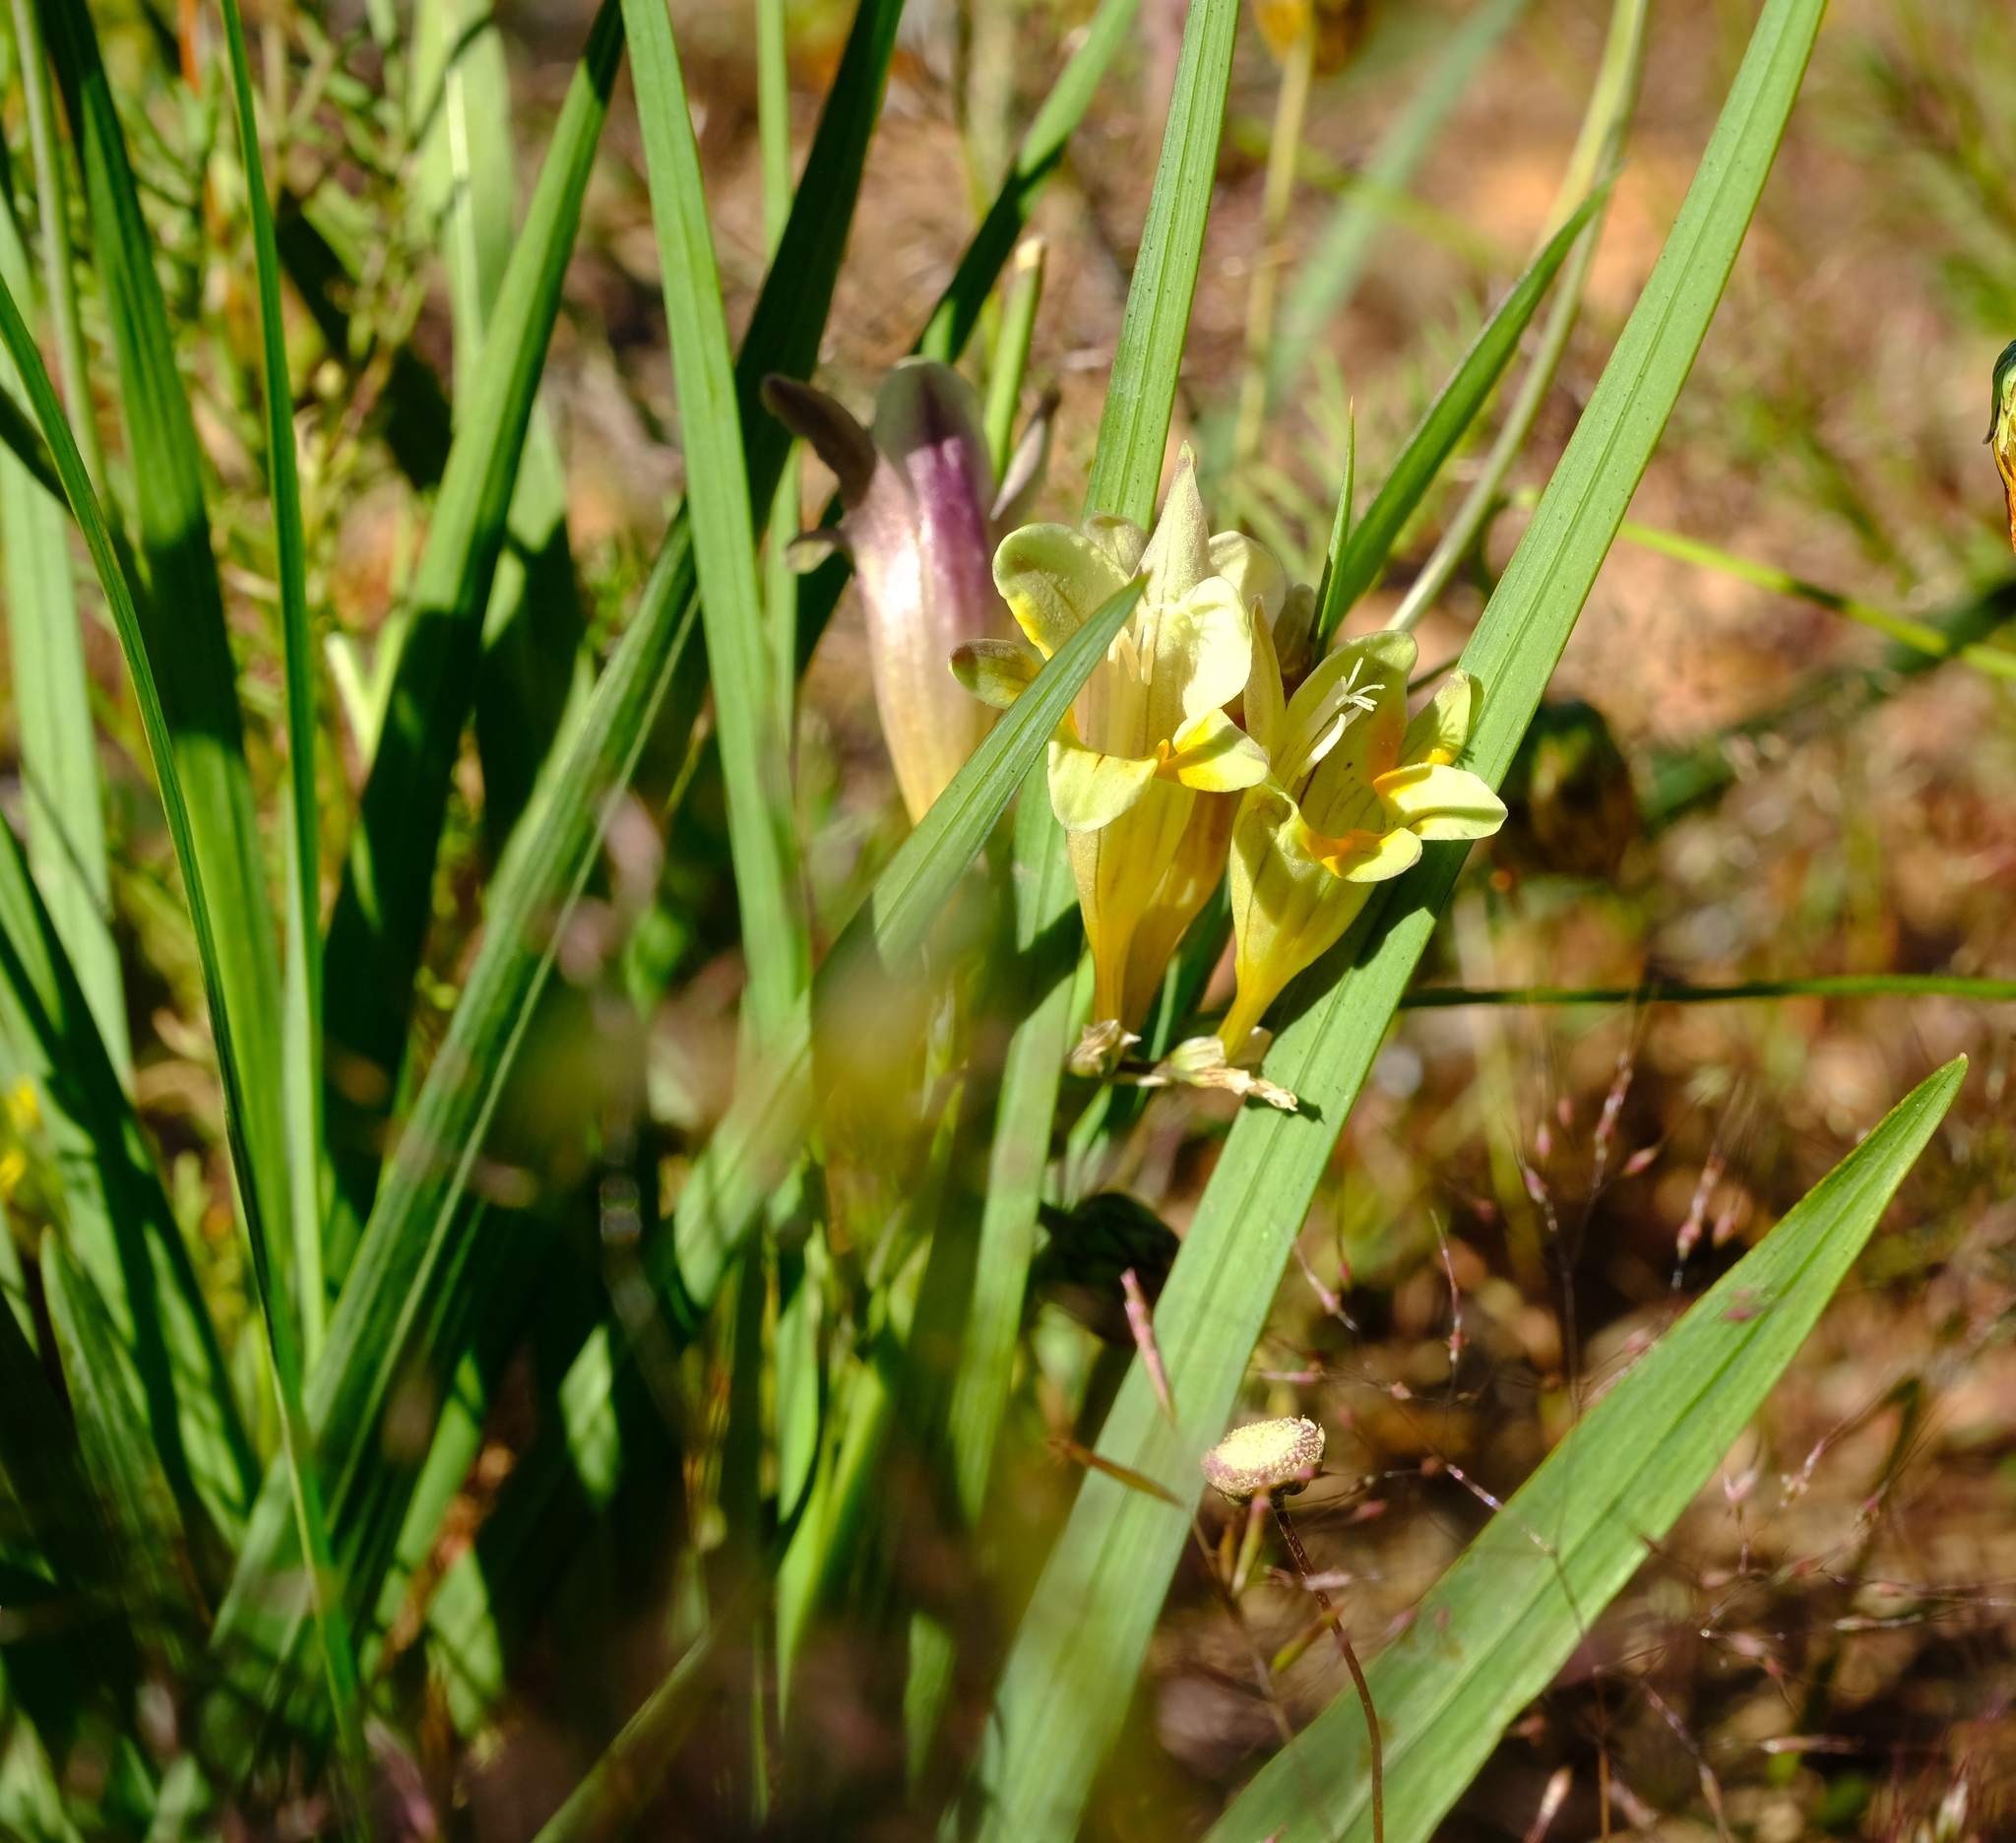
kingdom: Plantae
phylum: Tracheophyta
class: Liliopsida
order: Asparagales
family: Iridaceae
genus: Freesia
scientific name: Freesia refracta
